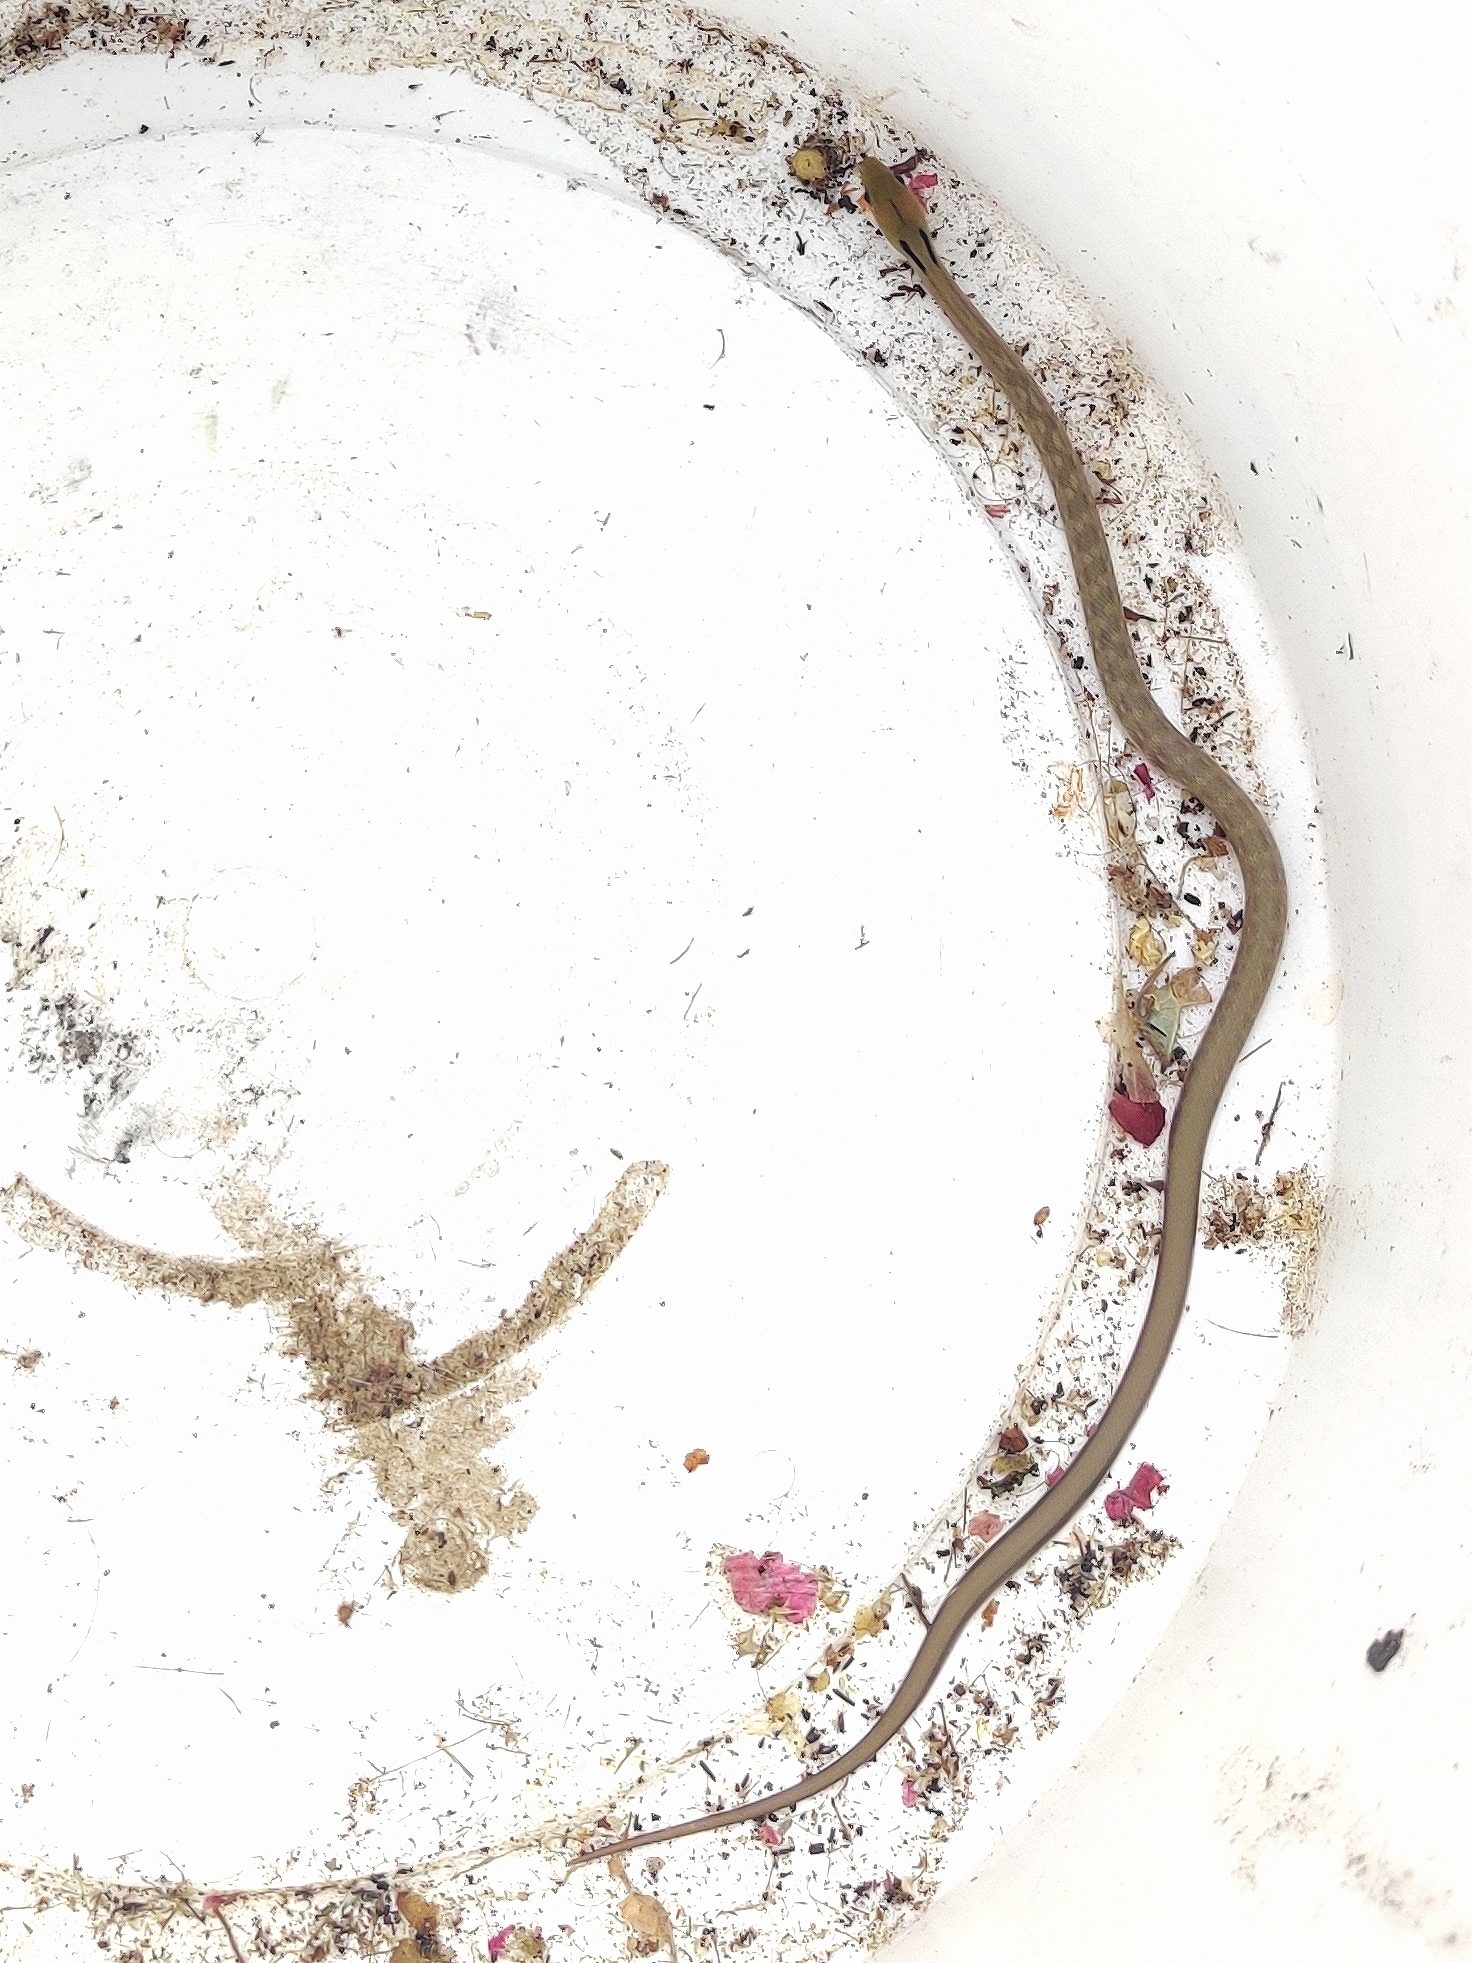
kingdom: Animalia
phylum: Chordata
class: Squamata
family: Colubridae
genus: Coelognathus
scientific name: Coelognathus helena
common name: Trinket snake
